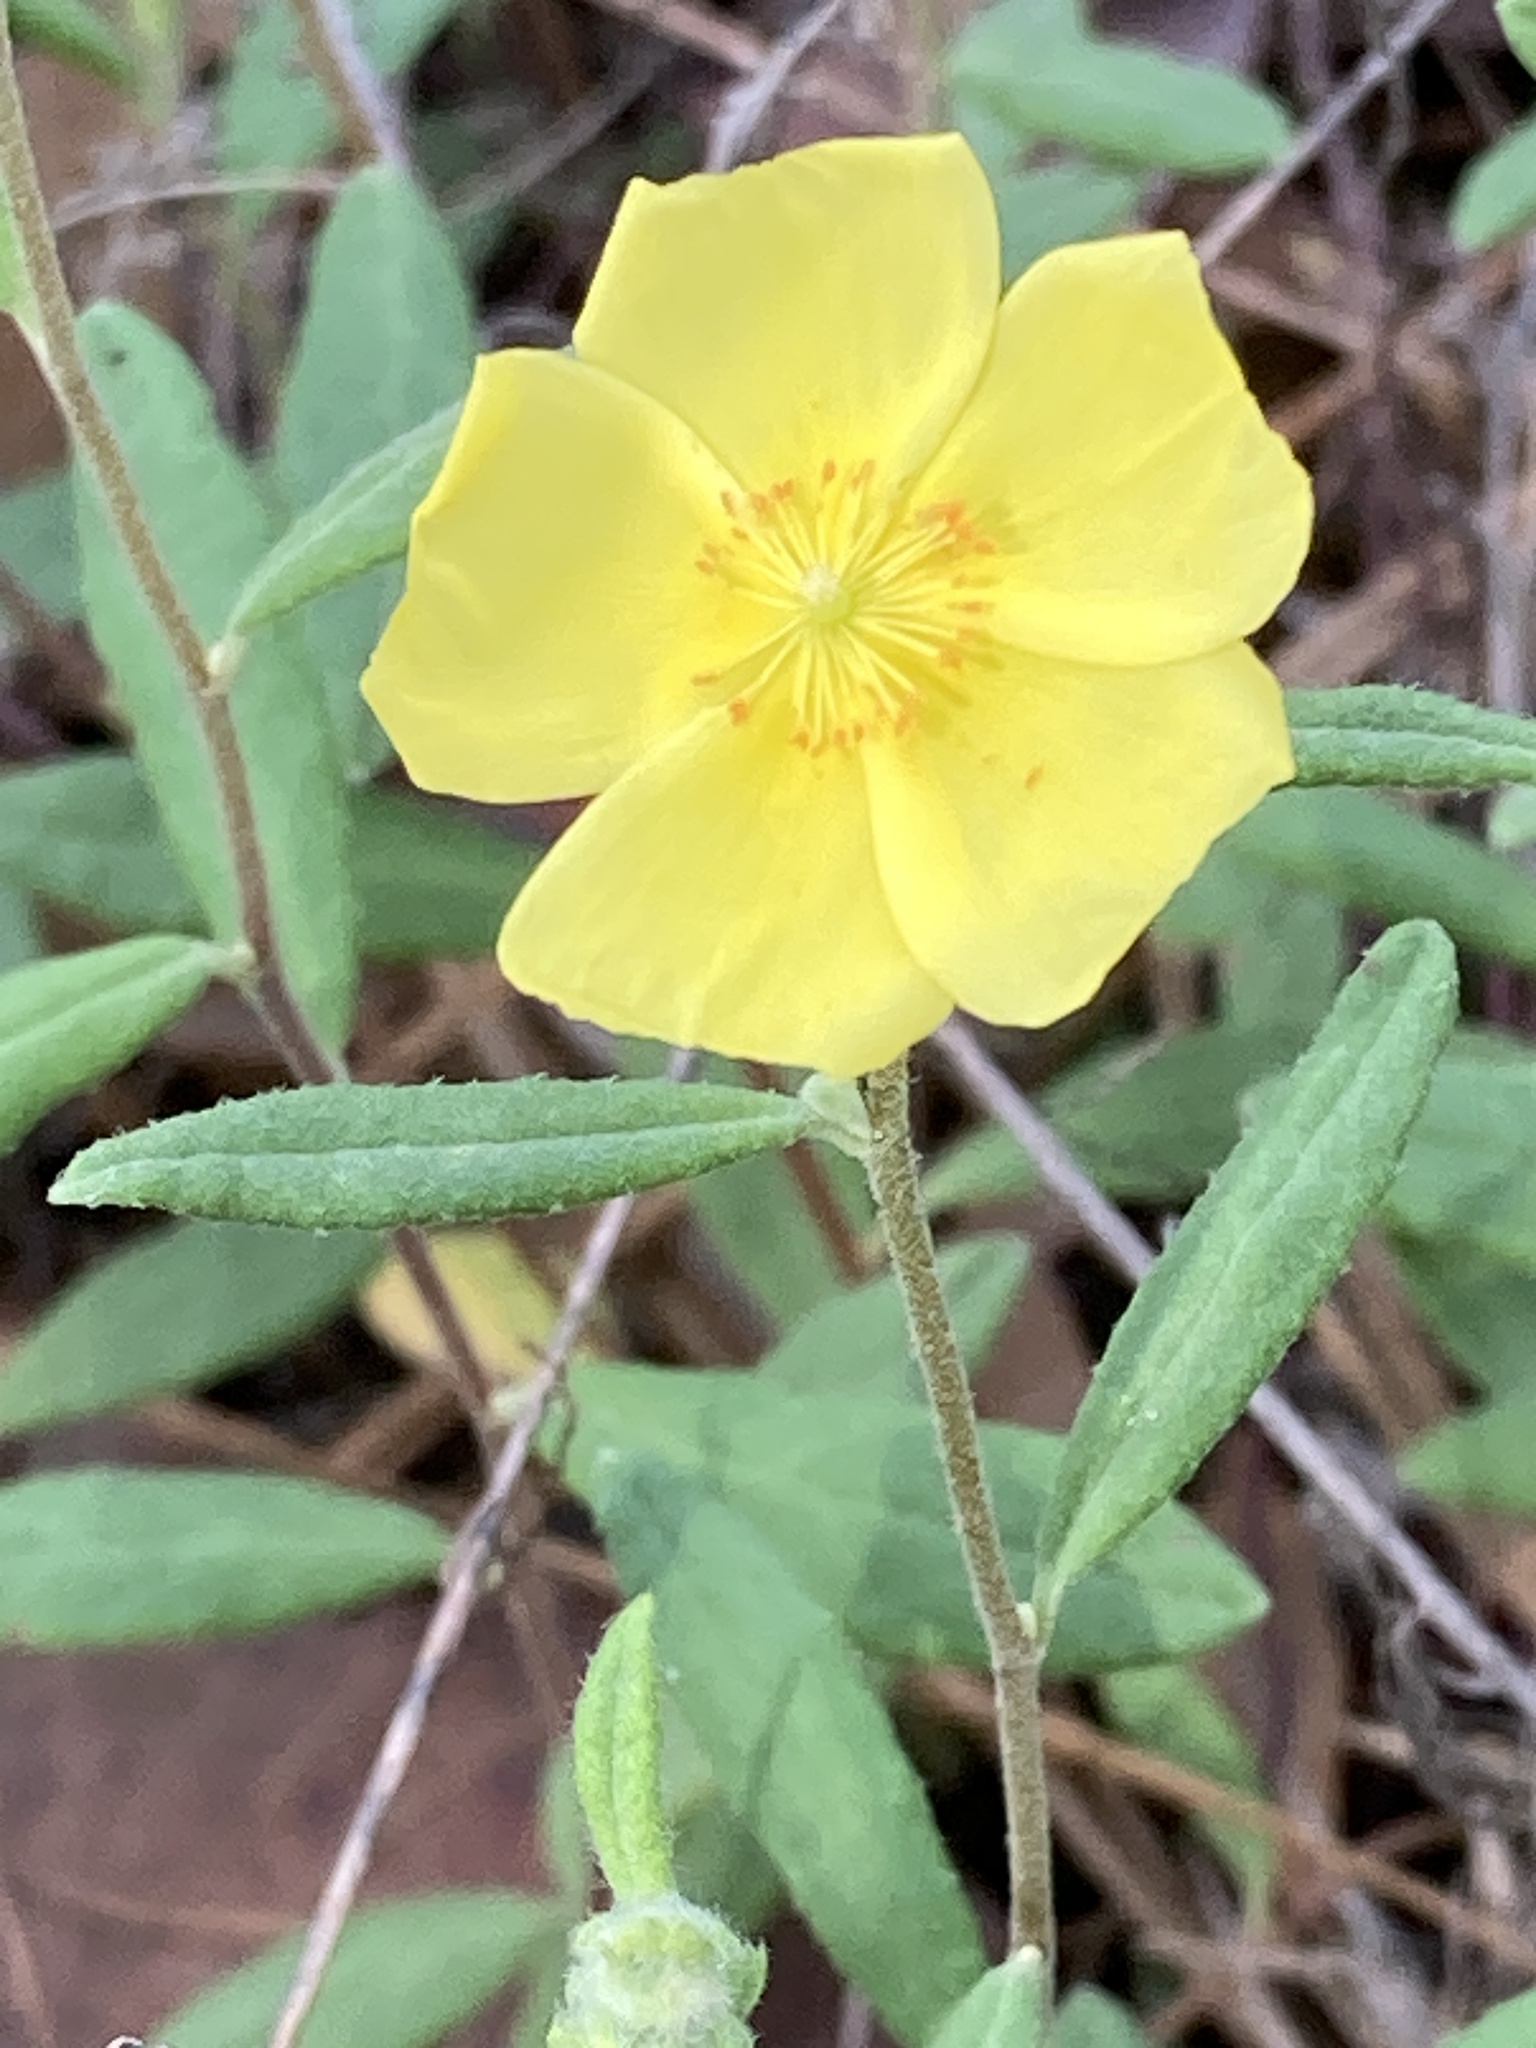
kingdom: Plantae
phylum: Tracheophyta
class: Magnoliopsida
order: Malvales
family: Cistaceae
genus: Crocanthemum
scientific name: Crocanthemum corymbosum
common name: Pinebarren sun-rose
